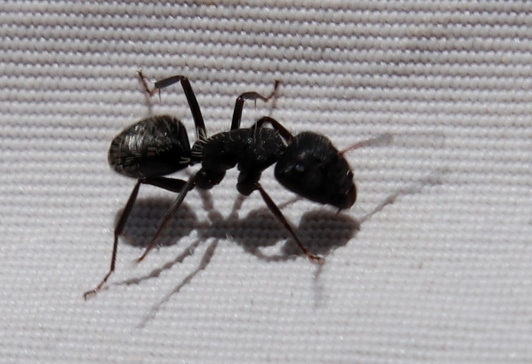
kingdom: Animalia
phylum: Arthropoda
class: Insecta
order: Hymenoptera
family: Formicidae
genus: Camponotus
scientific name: Camponotus niveosetosus
